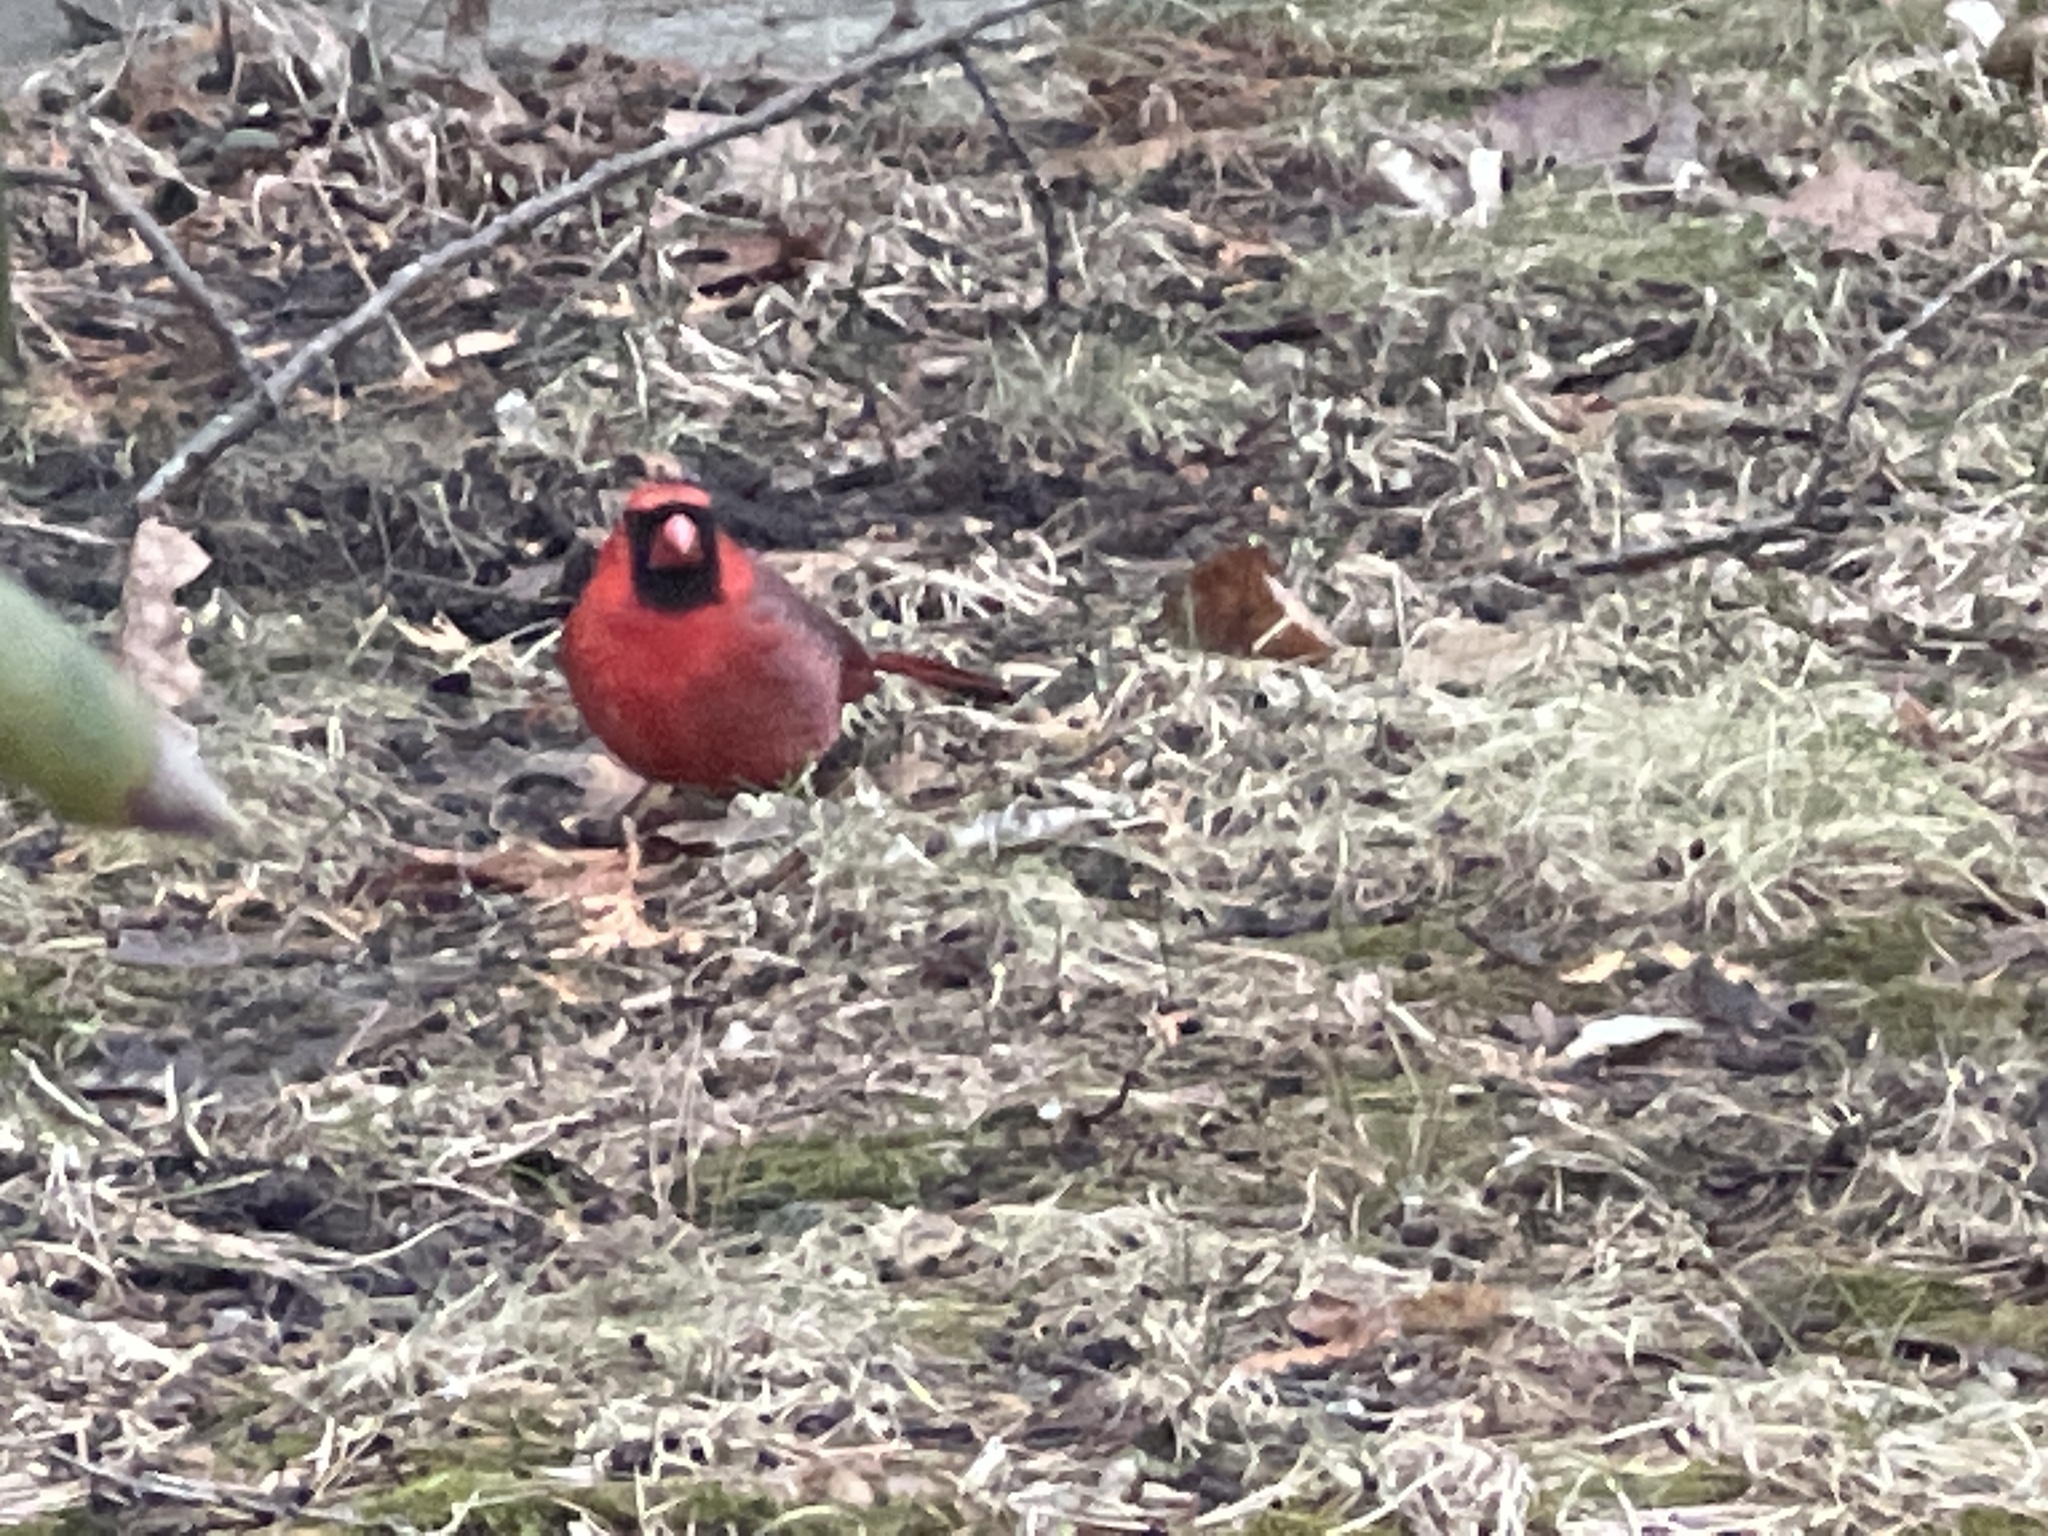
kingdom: Animalia
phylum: Chordata
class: Aves
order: Passeriformes
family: Cardinalidae
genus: Cardinalis
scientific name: Cardinalis cardinalis
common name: Northern cardinal
